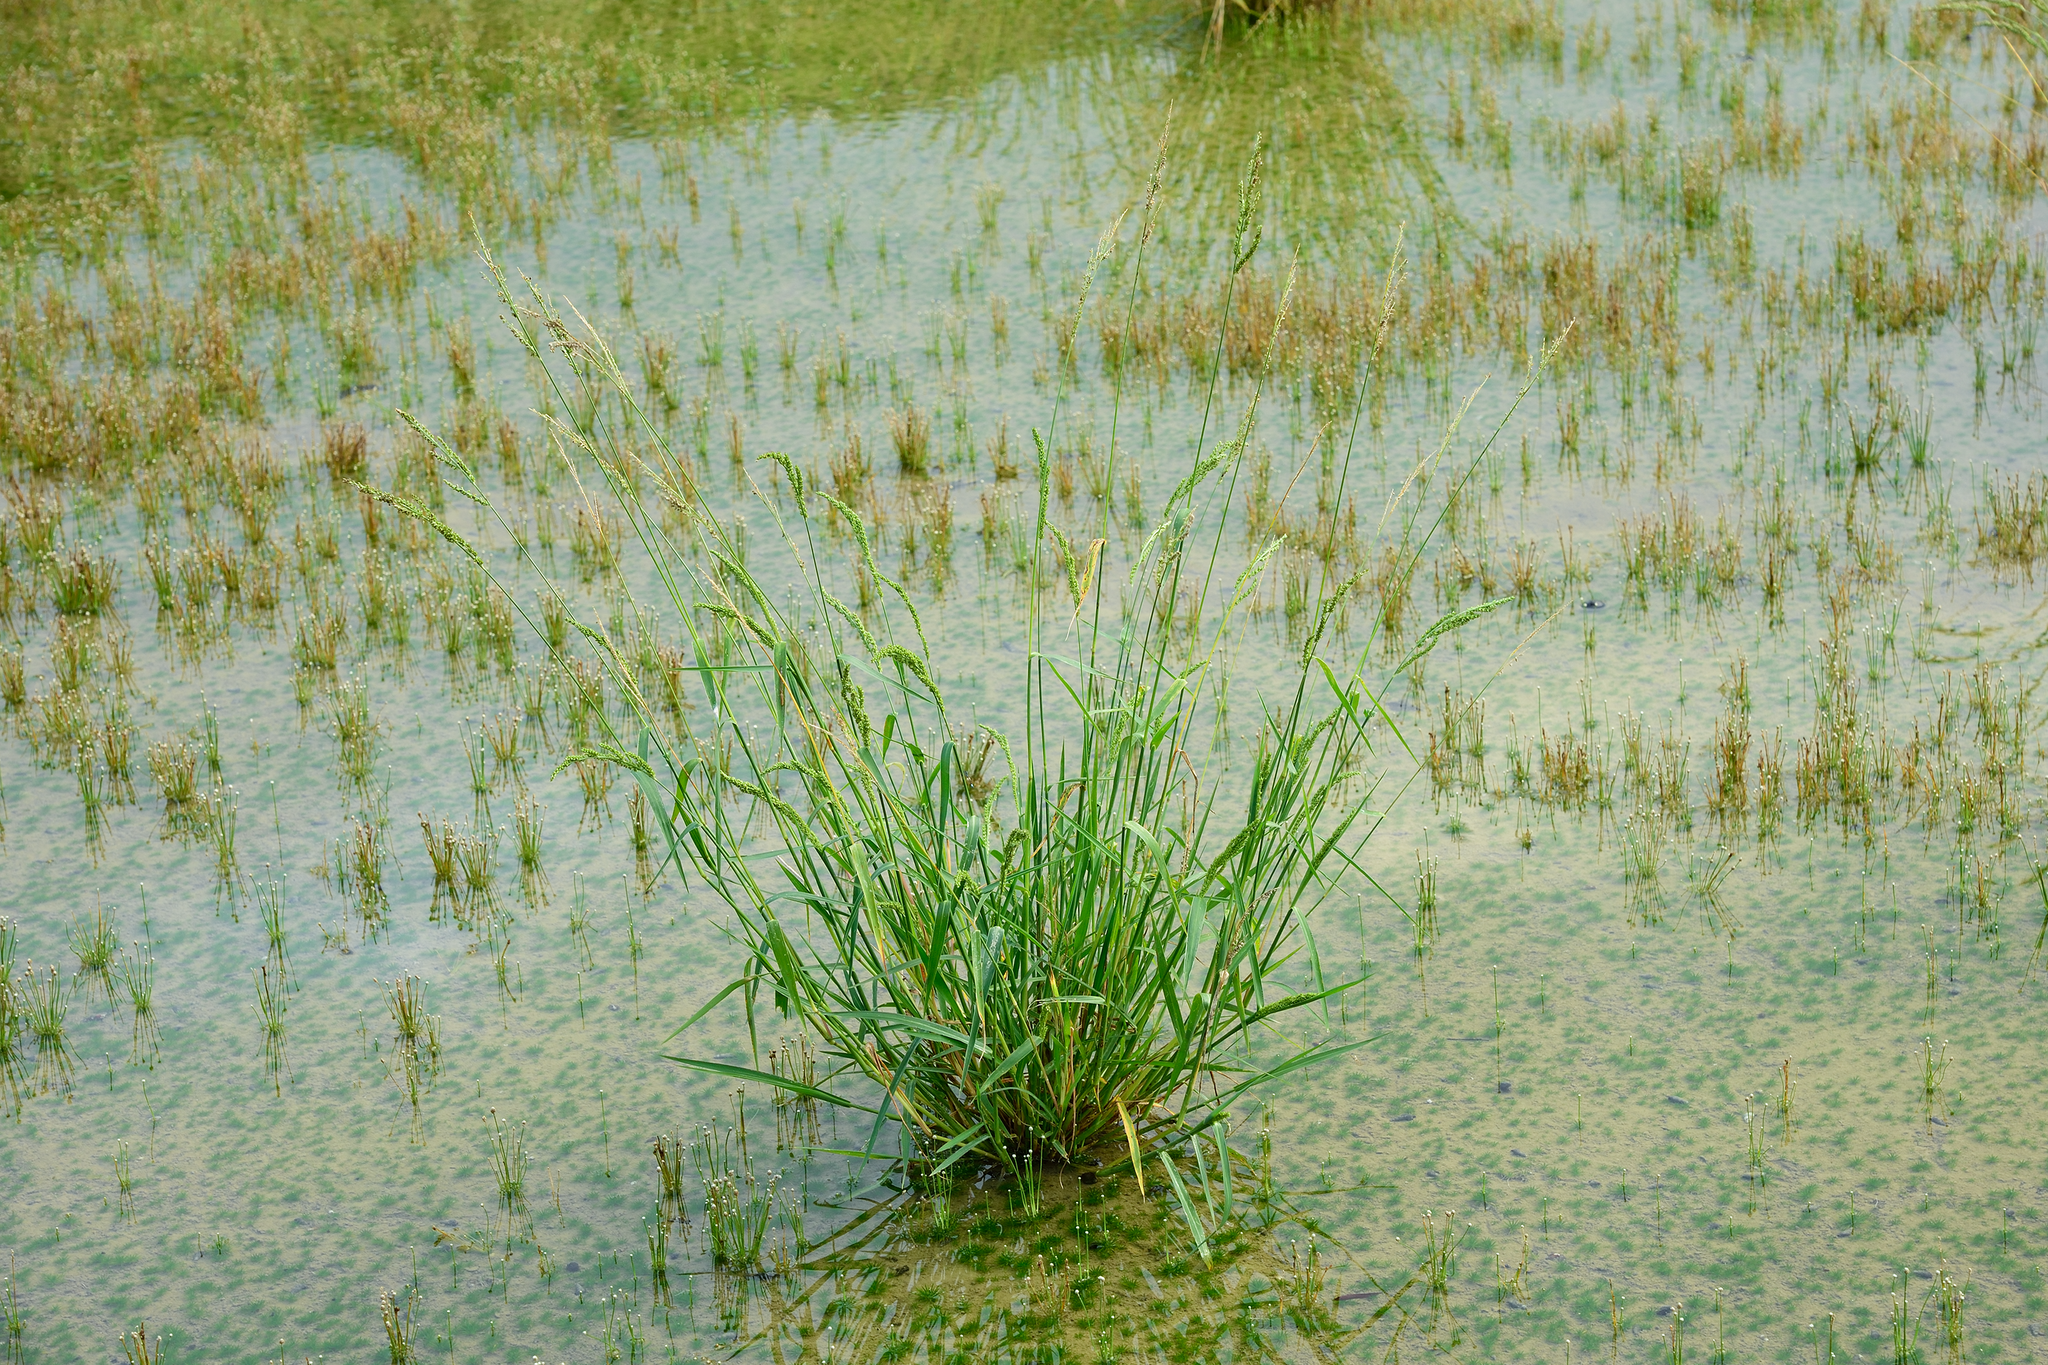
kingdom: Plantae
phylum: Tracheophyta
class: Liliopsida
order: Poales
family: Poaceae
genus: Echinochloa
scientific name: Echinochloa crus-galli
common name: Cockspur
